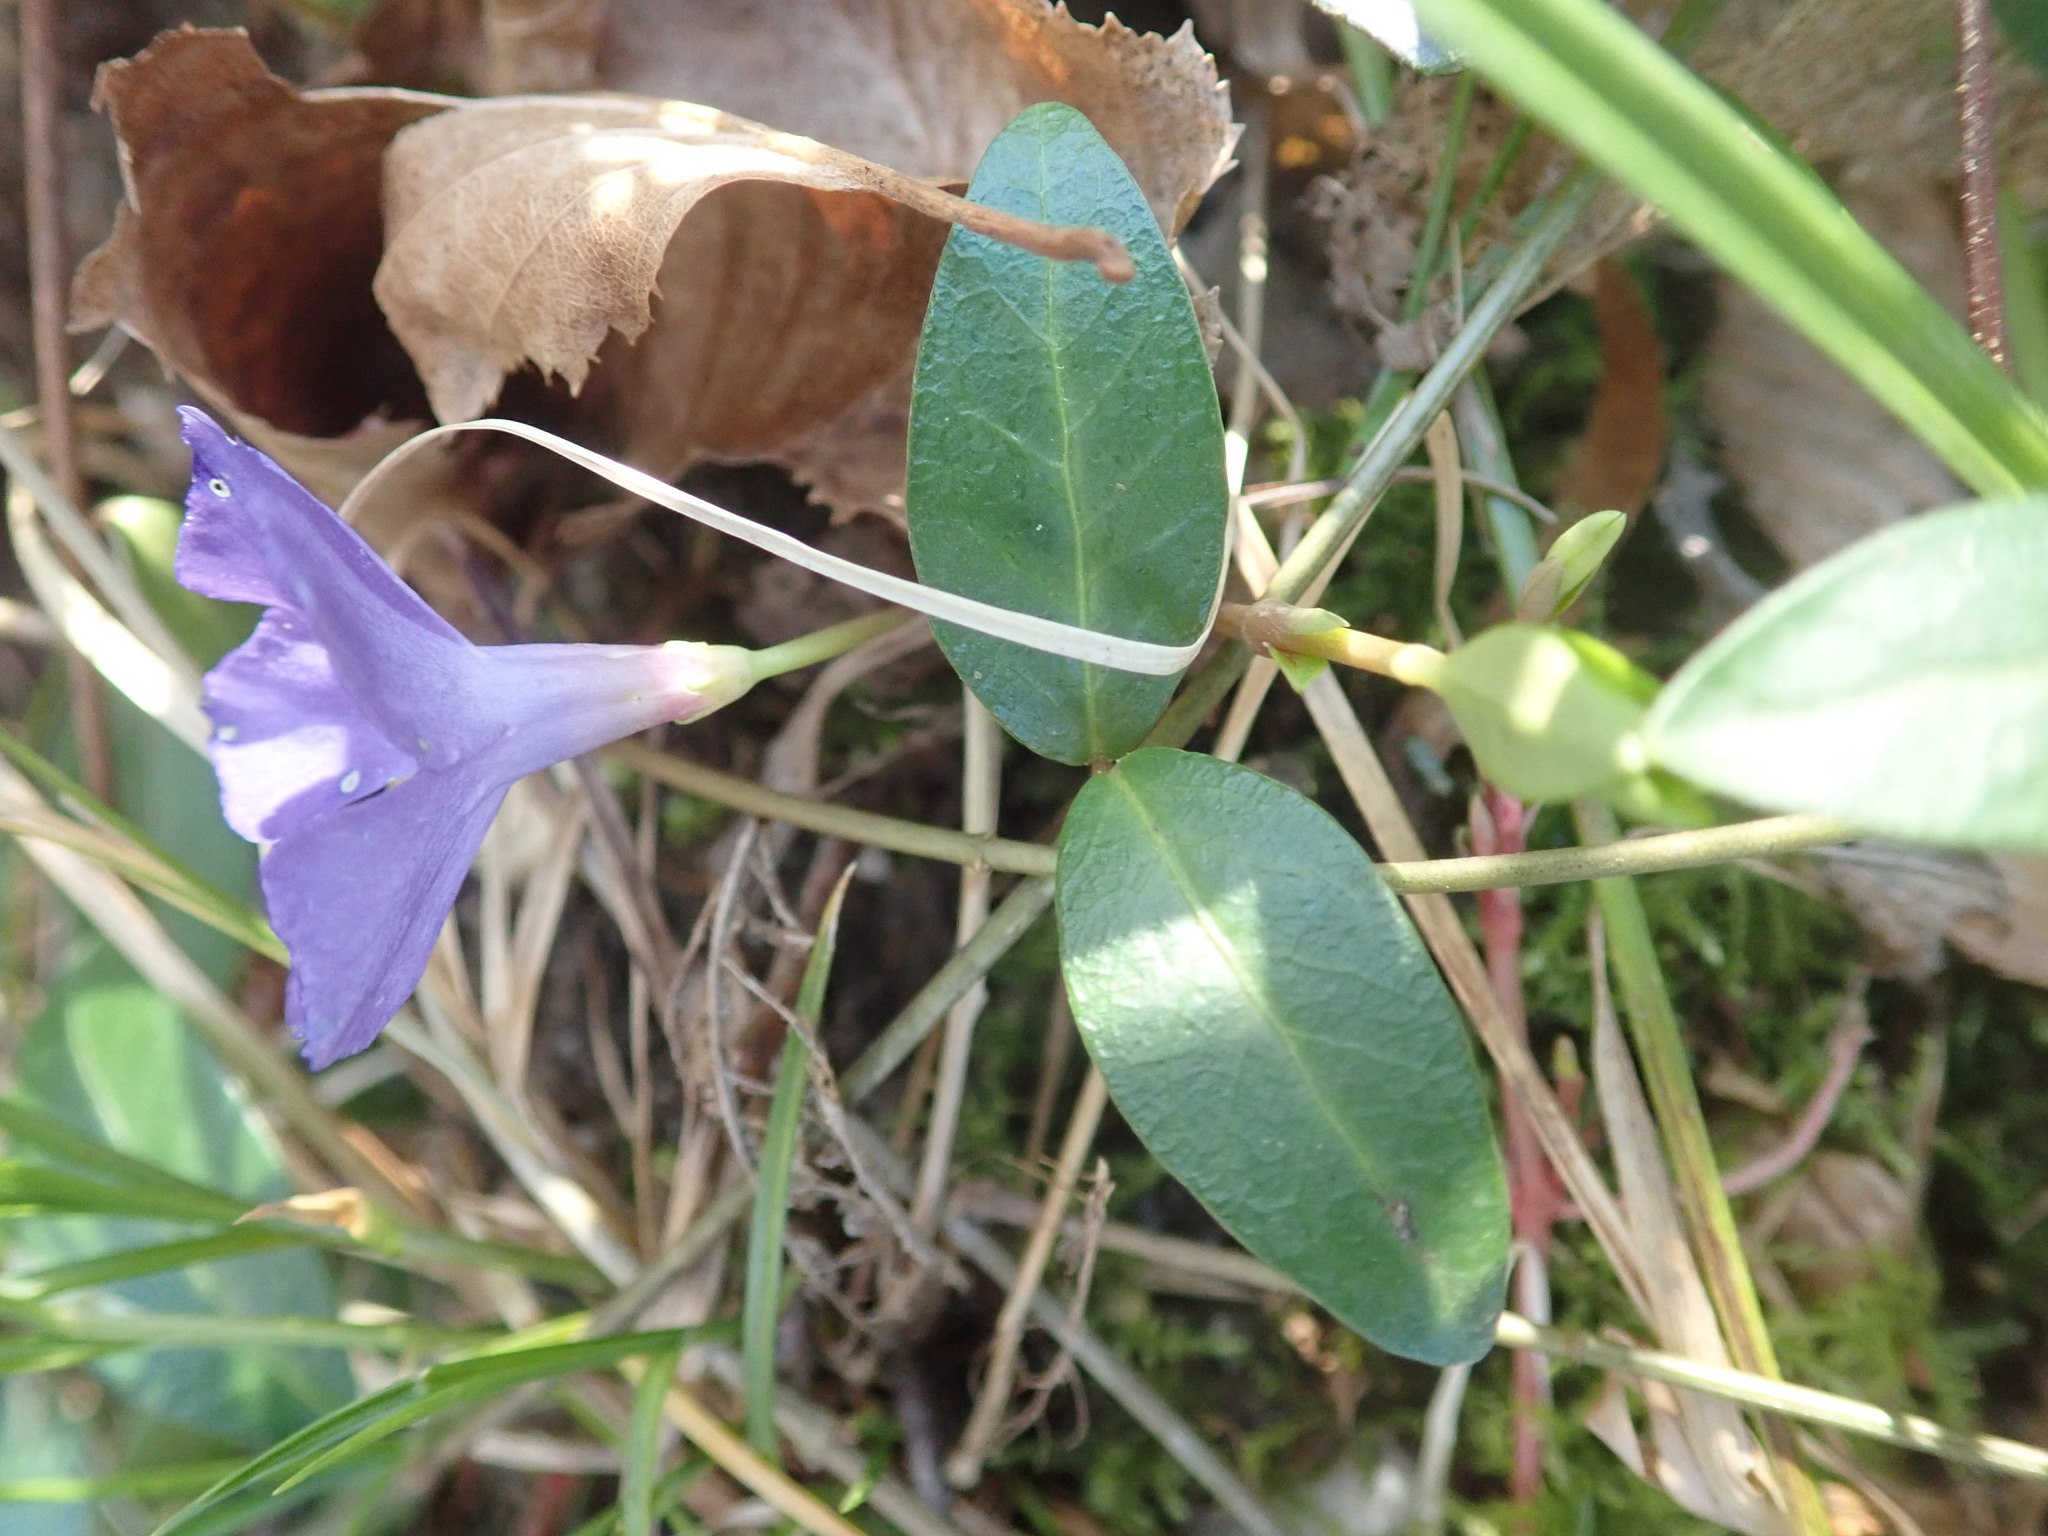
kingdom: Plantae
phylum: Tracheophyta
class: Magnoliopsida
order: Gentianales
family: Apocynaceae
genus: Vinca
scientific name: Vinca minor
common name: Lesser periwinkle
